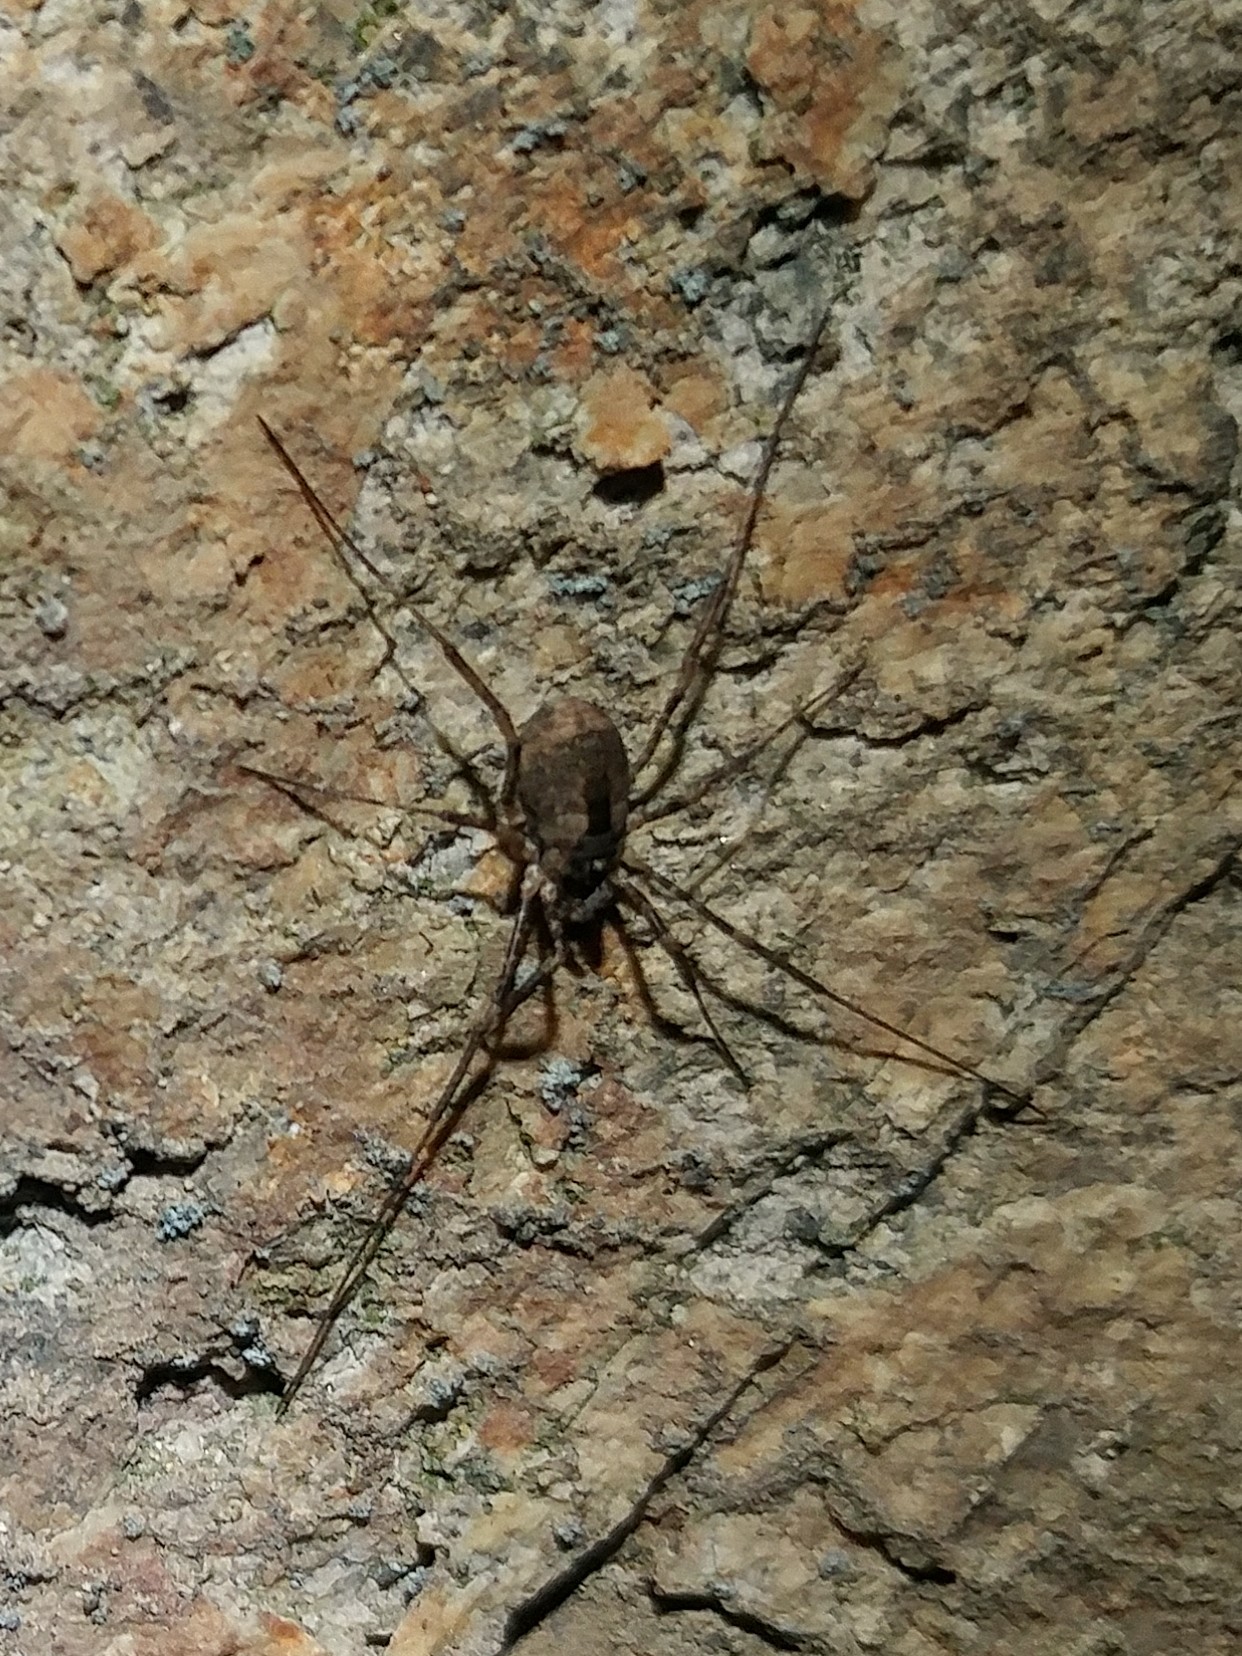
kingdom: Animalia
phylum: Arthropoda
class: Arachnida
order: Opiliones
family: Protolophidae
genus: Protolophus
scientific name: Protolophus singularis
